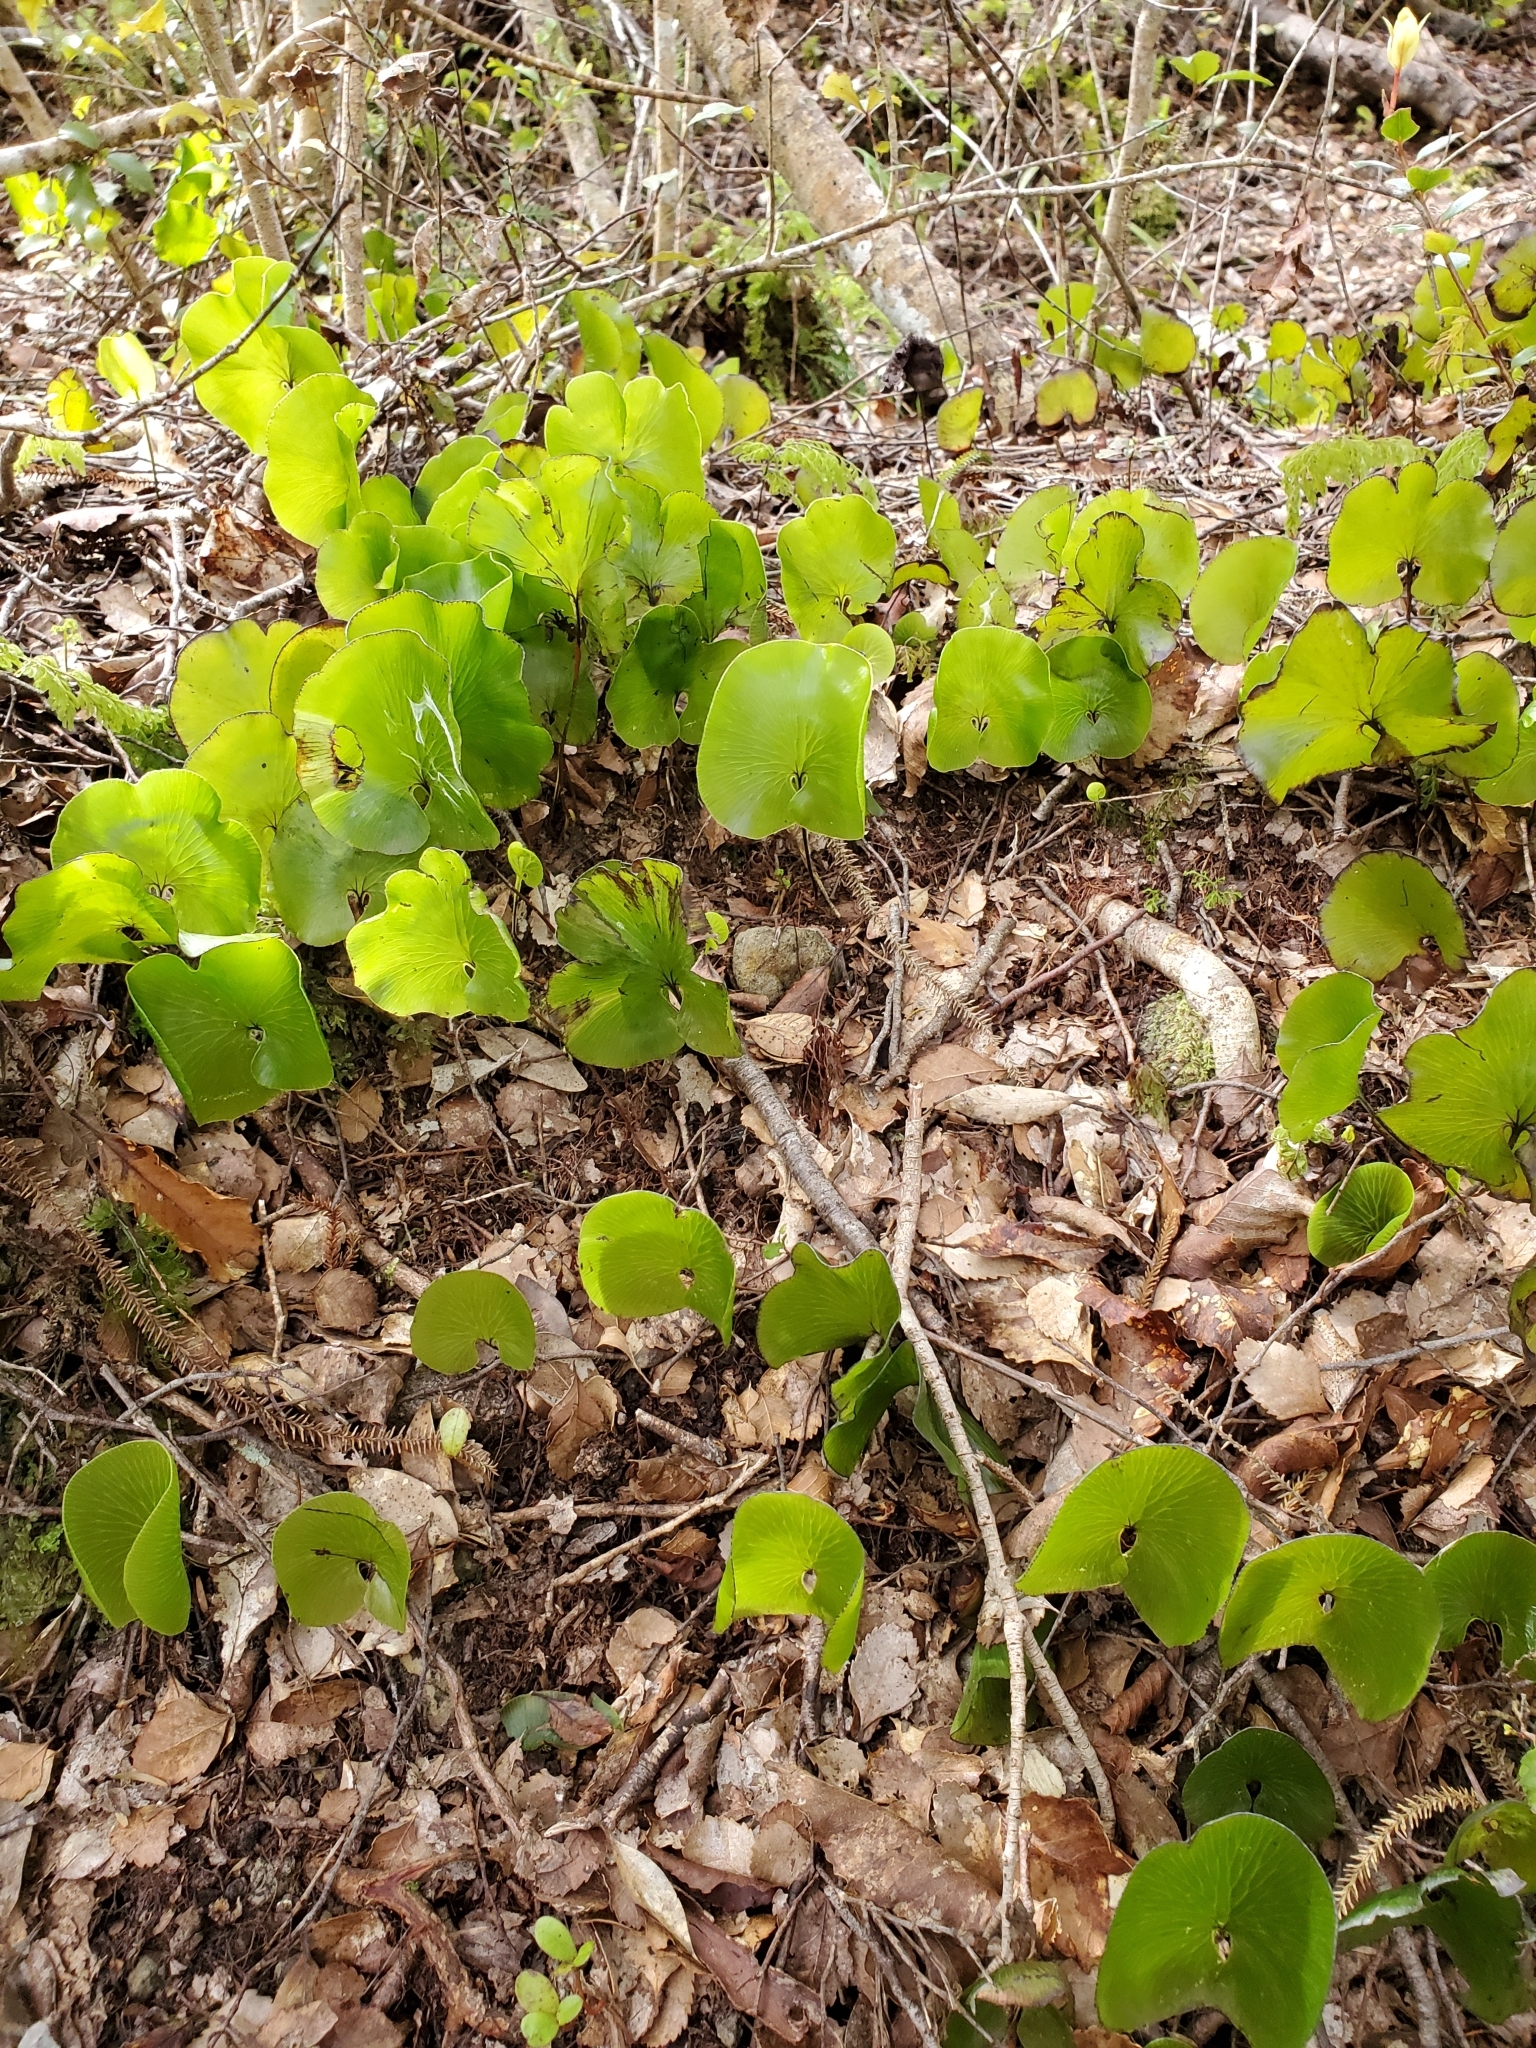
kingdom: Plantae
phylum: Tracheophyta
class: Polypodiopsida
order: Hymenophyllales
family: Hymenophyllaceae
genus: Hymenophyllum
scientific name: Hymenophyllum nephrophyllum
